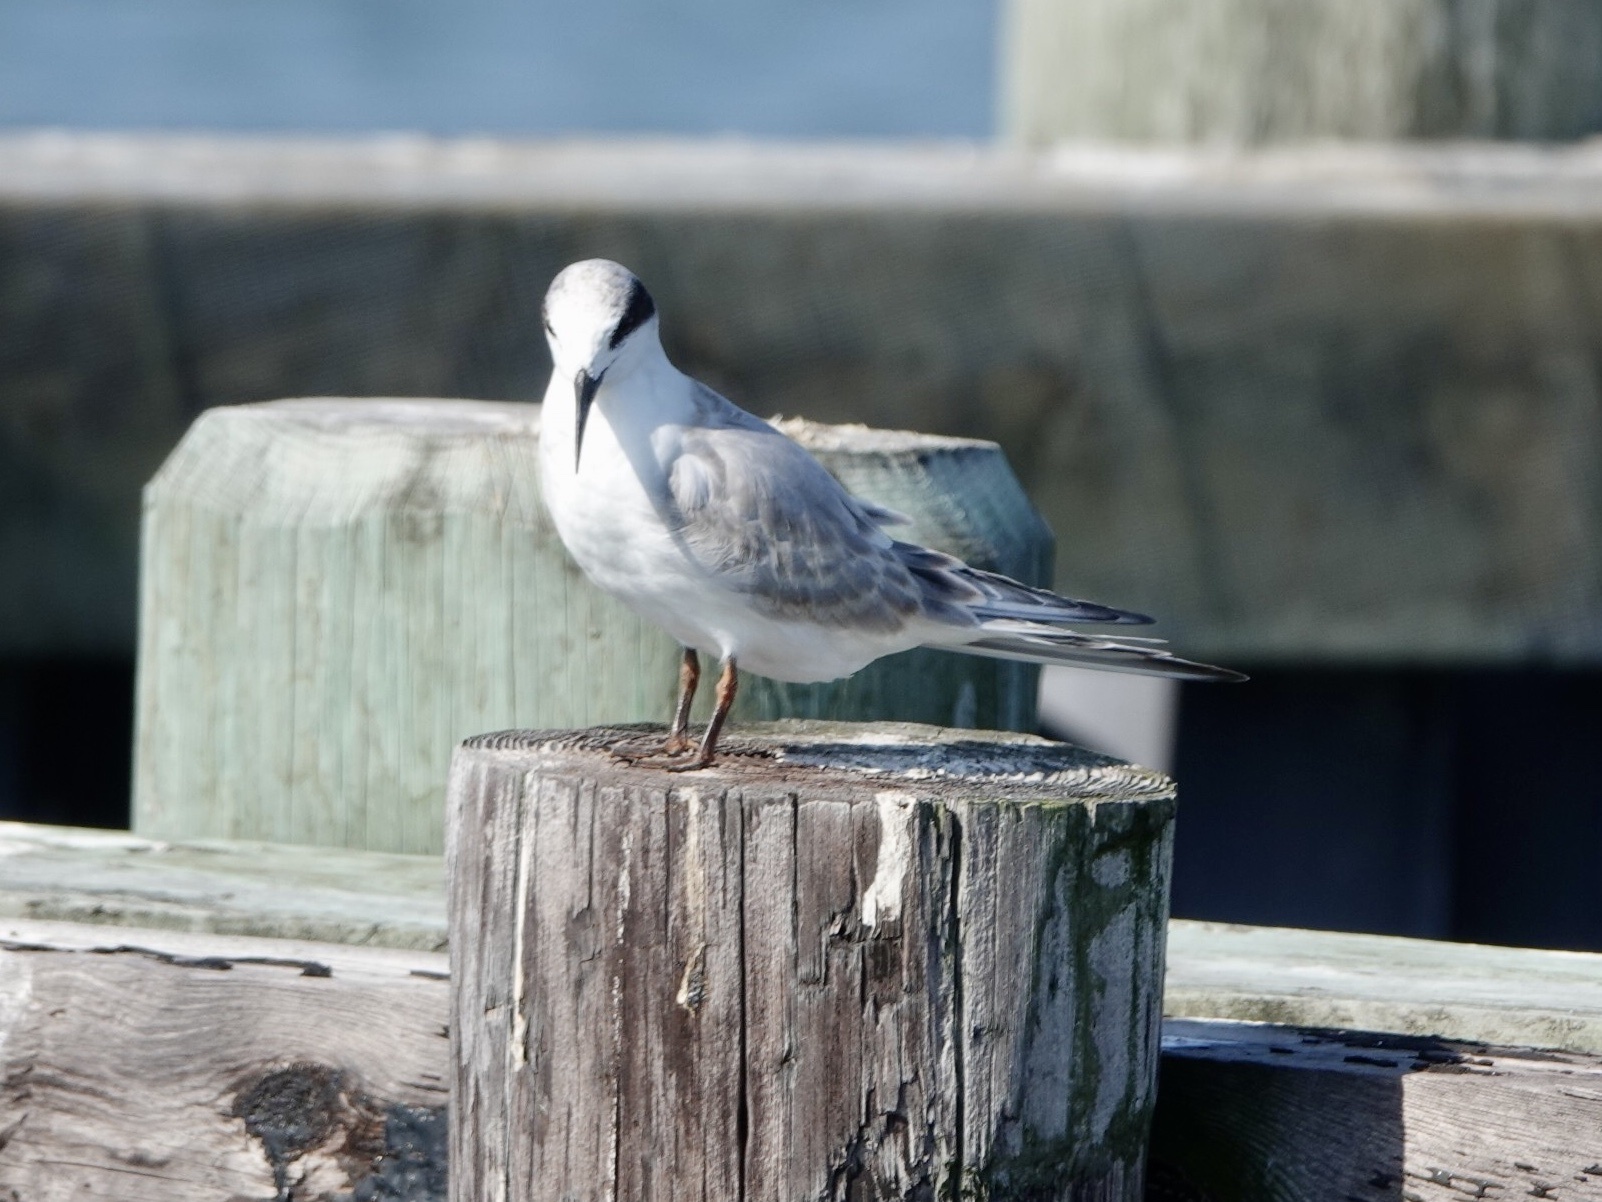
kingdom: Animalia
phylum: Chordata
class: Aves
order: Charadriiformes
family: Laridae
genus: Sterna
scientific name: Sterna forsteri
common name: Forster's tern
